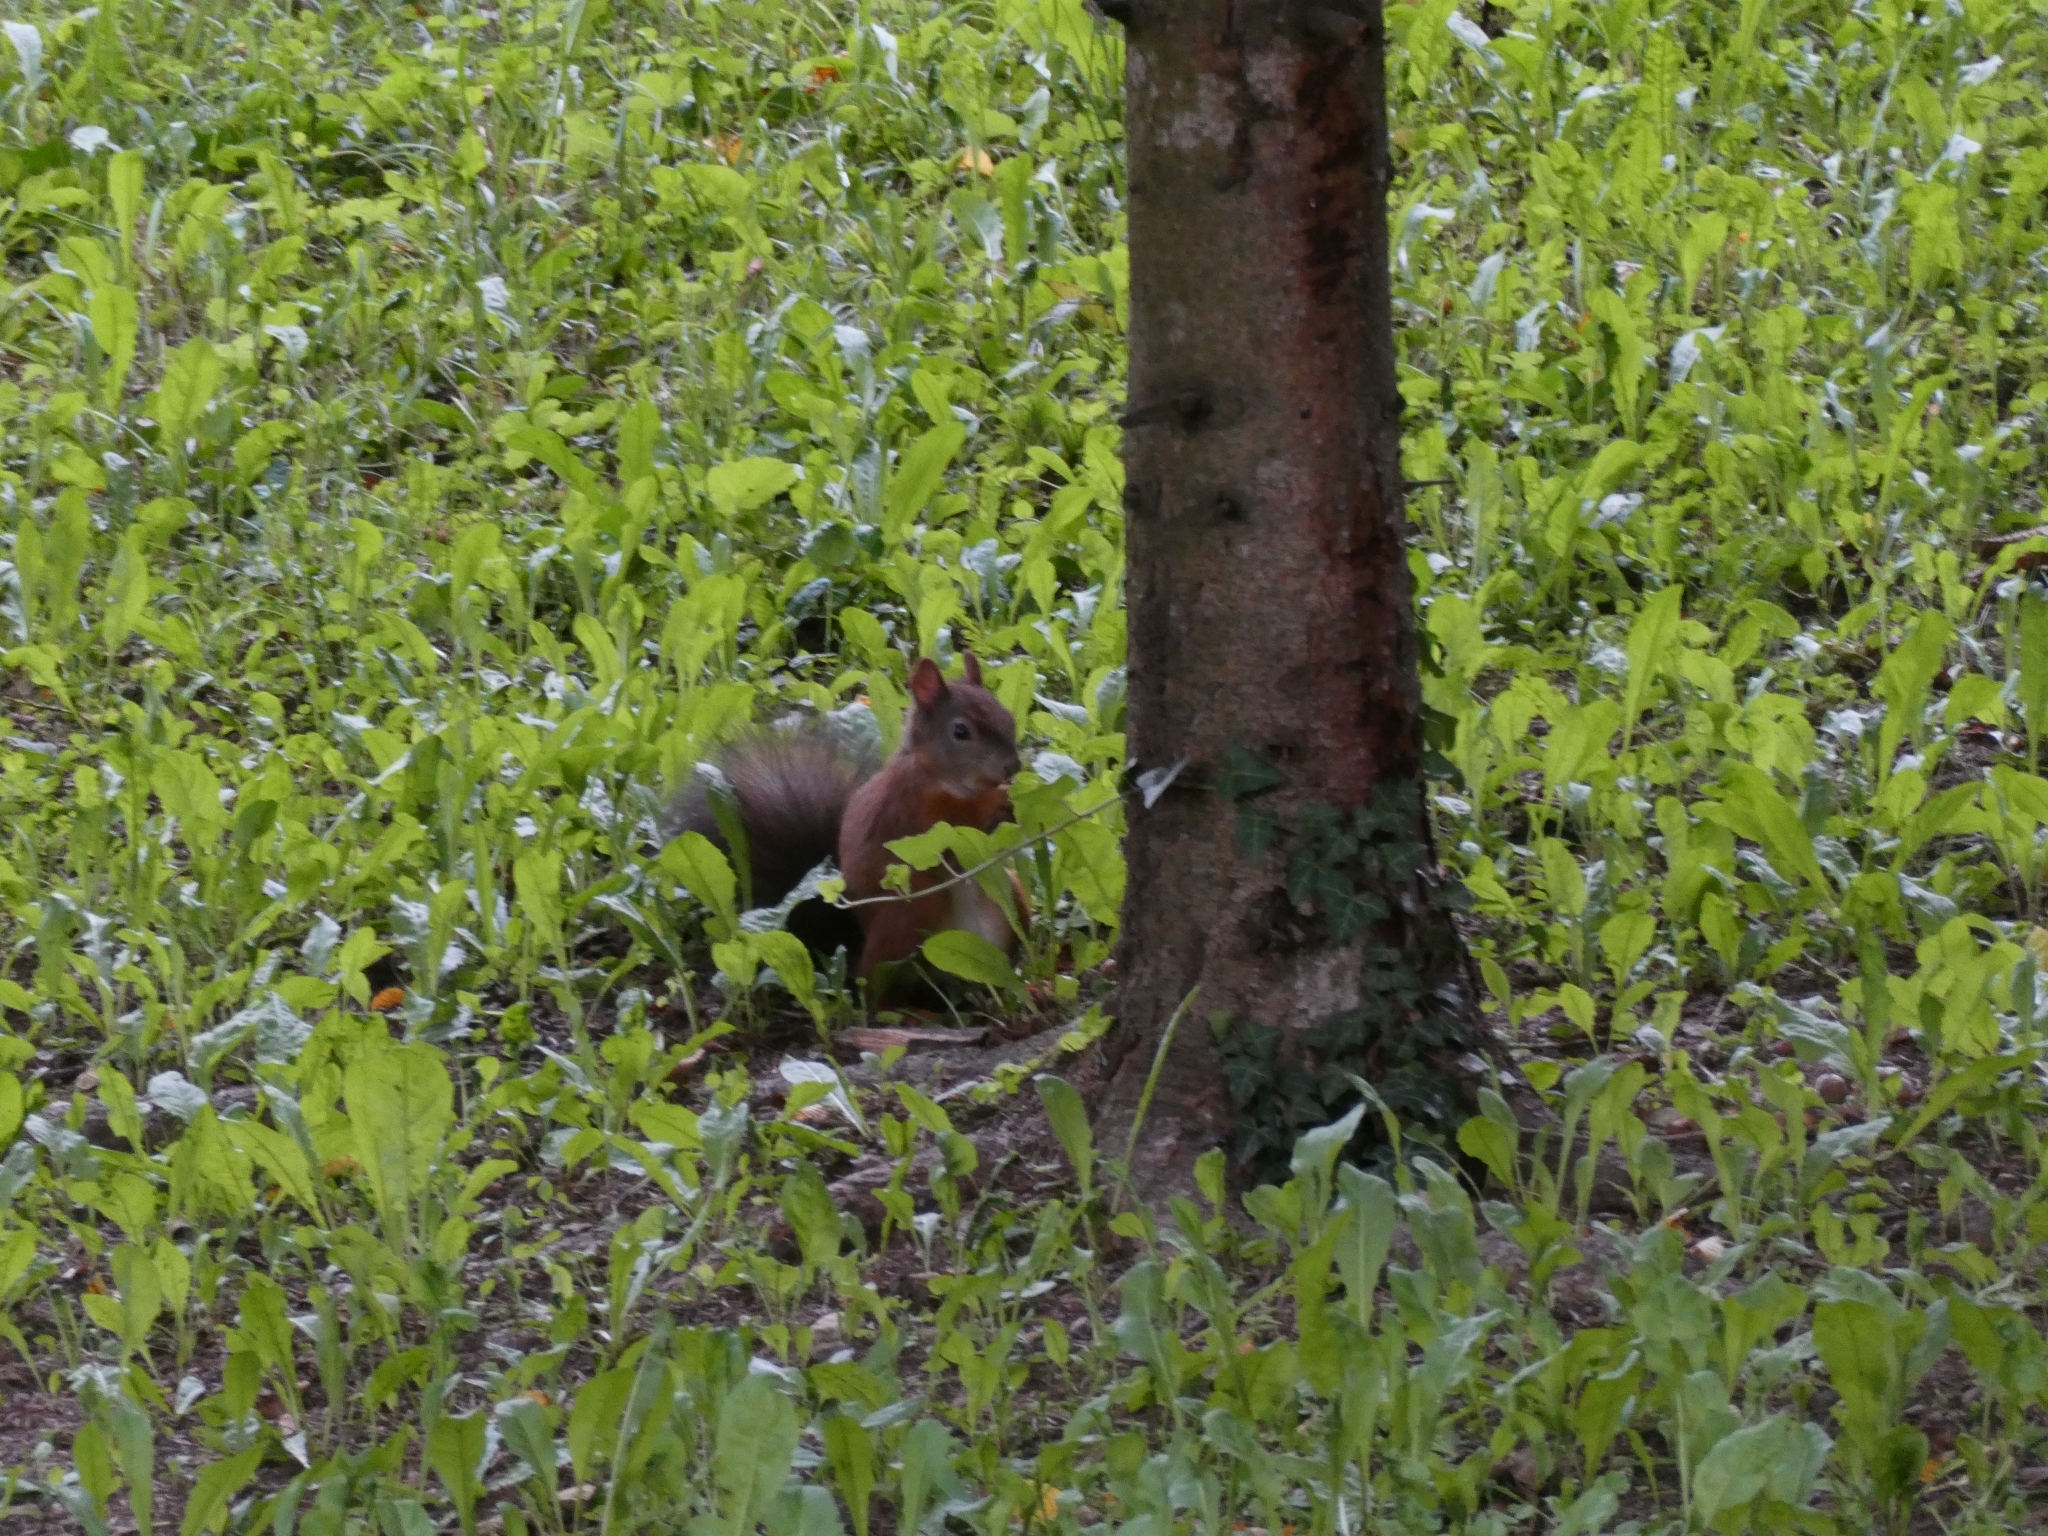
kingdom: Animalia
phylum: Chordata
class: Mammalia
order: Rodentia
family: Sciuridae
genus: Sciurus
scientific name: Sciurus vulgaris
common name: Eurasian red squirrel
